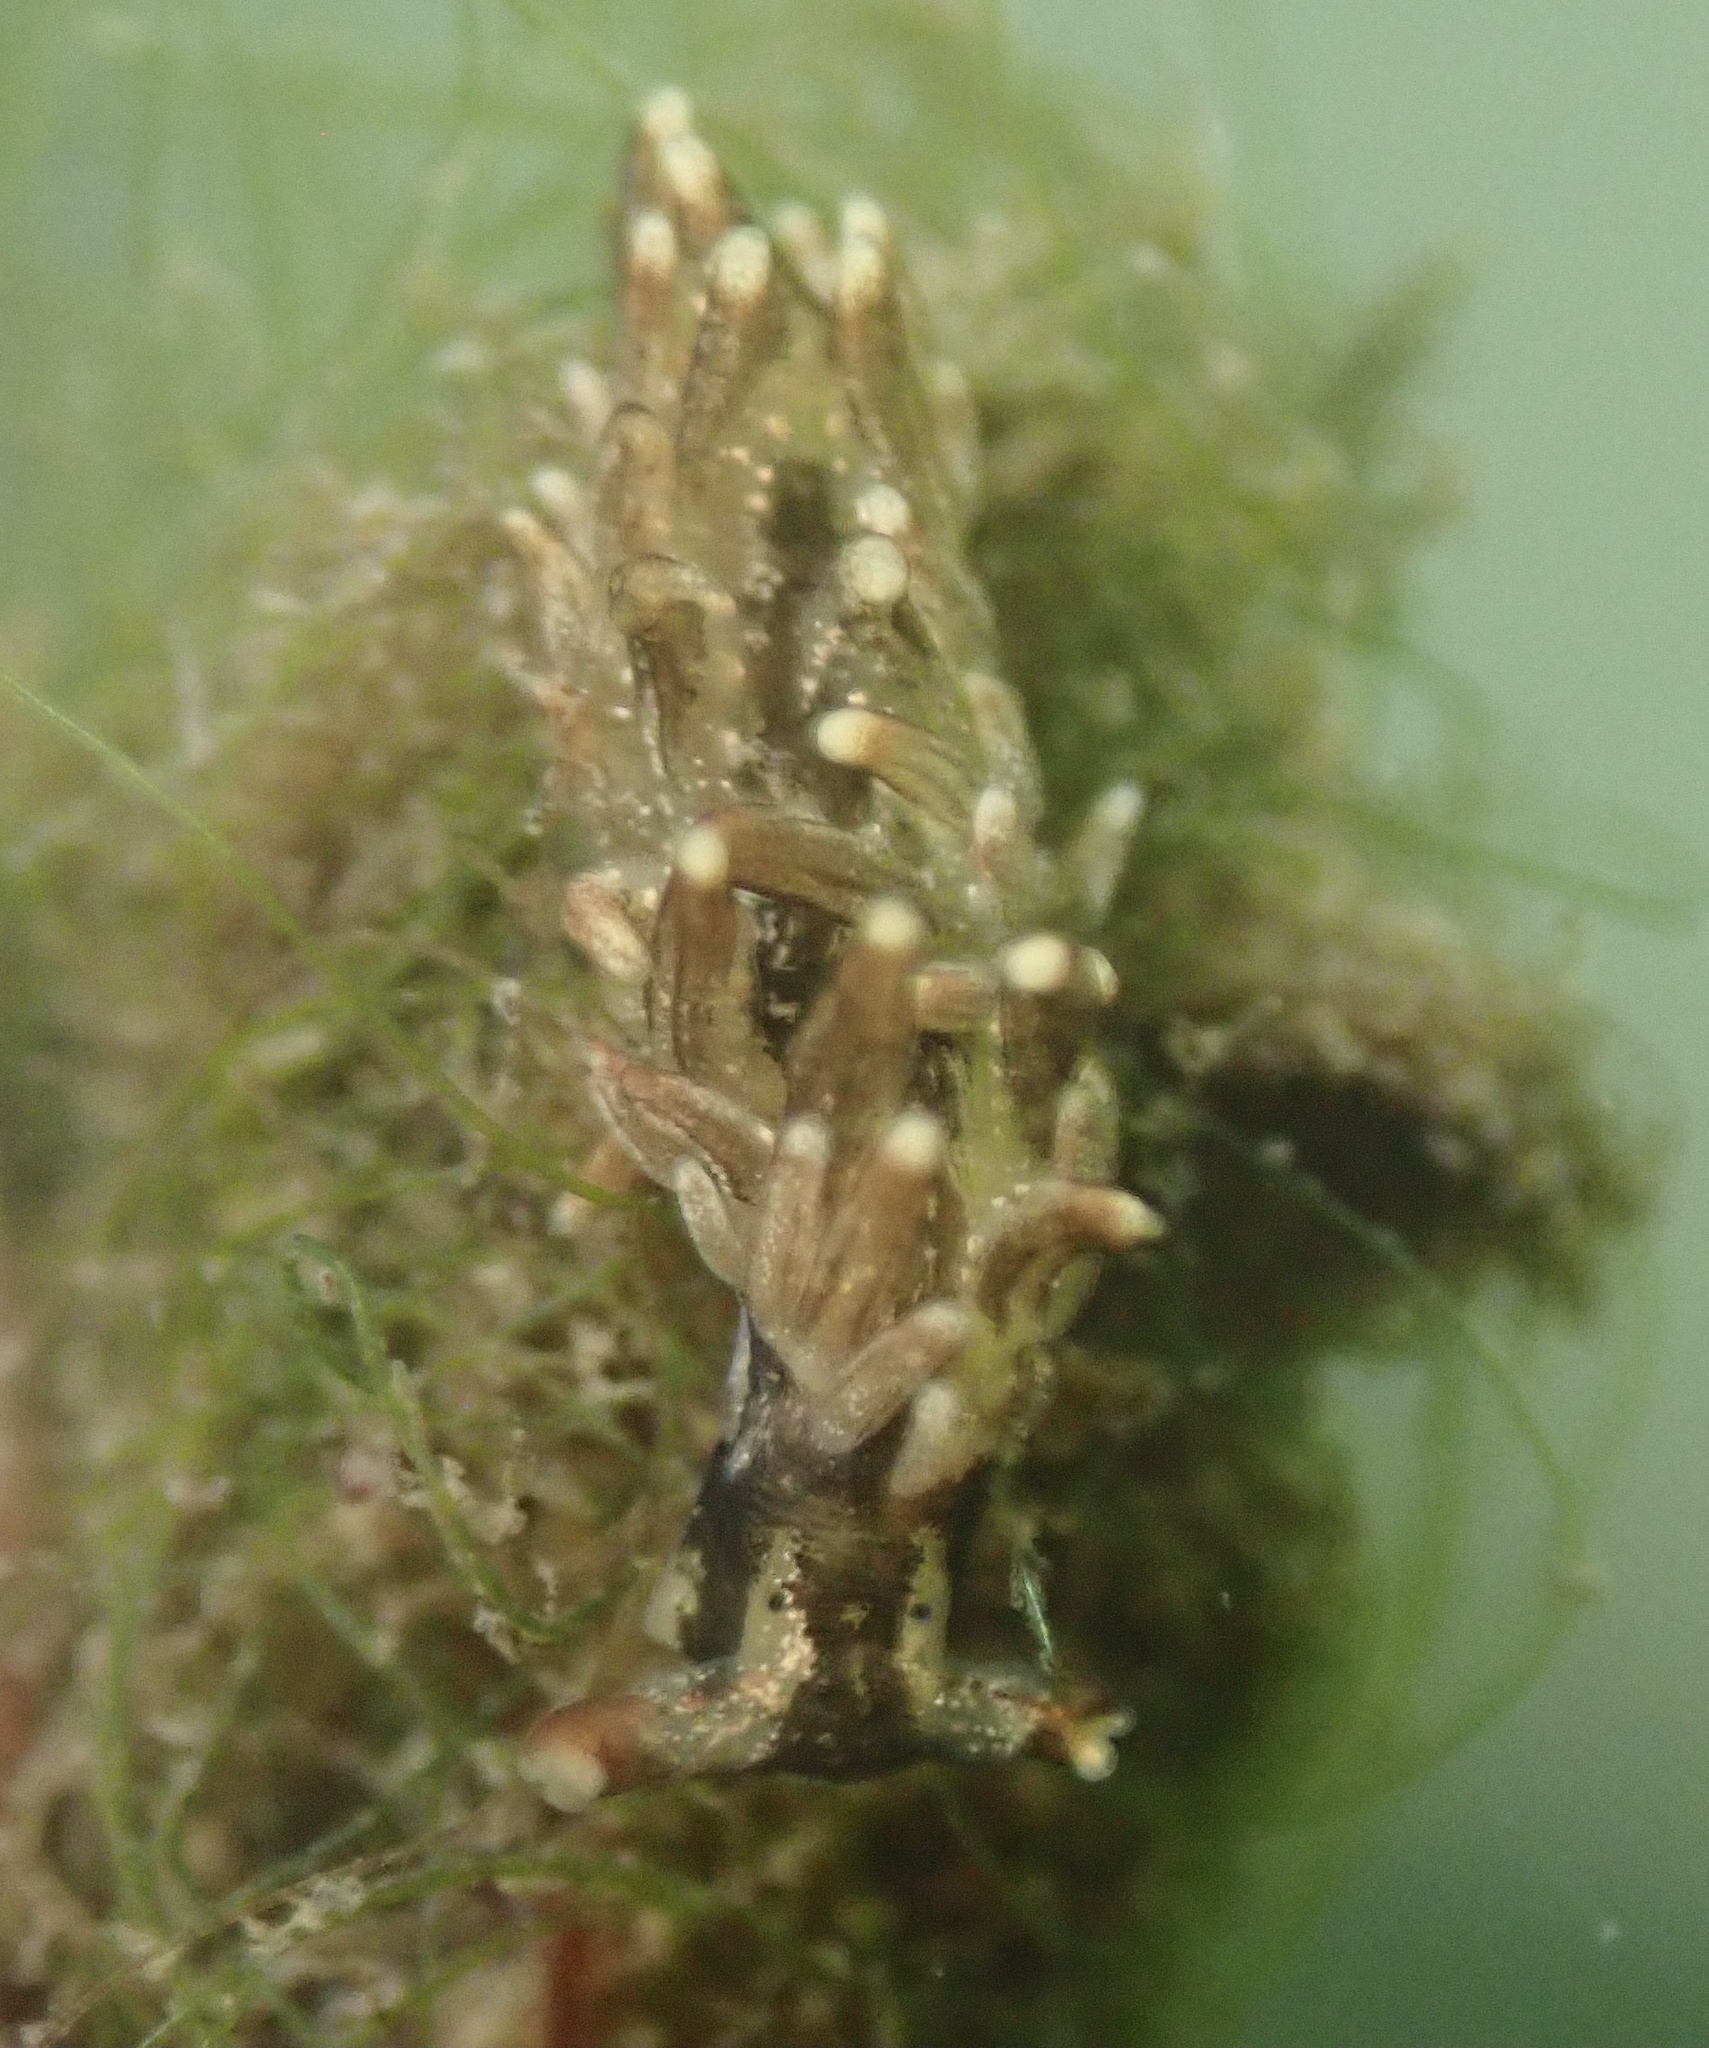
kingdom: Animalia
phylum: Mollusca
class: Gastropoda
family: Hermaeidae
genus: Aplysiopsis
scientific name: Aplysiopsis enteromorphae
